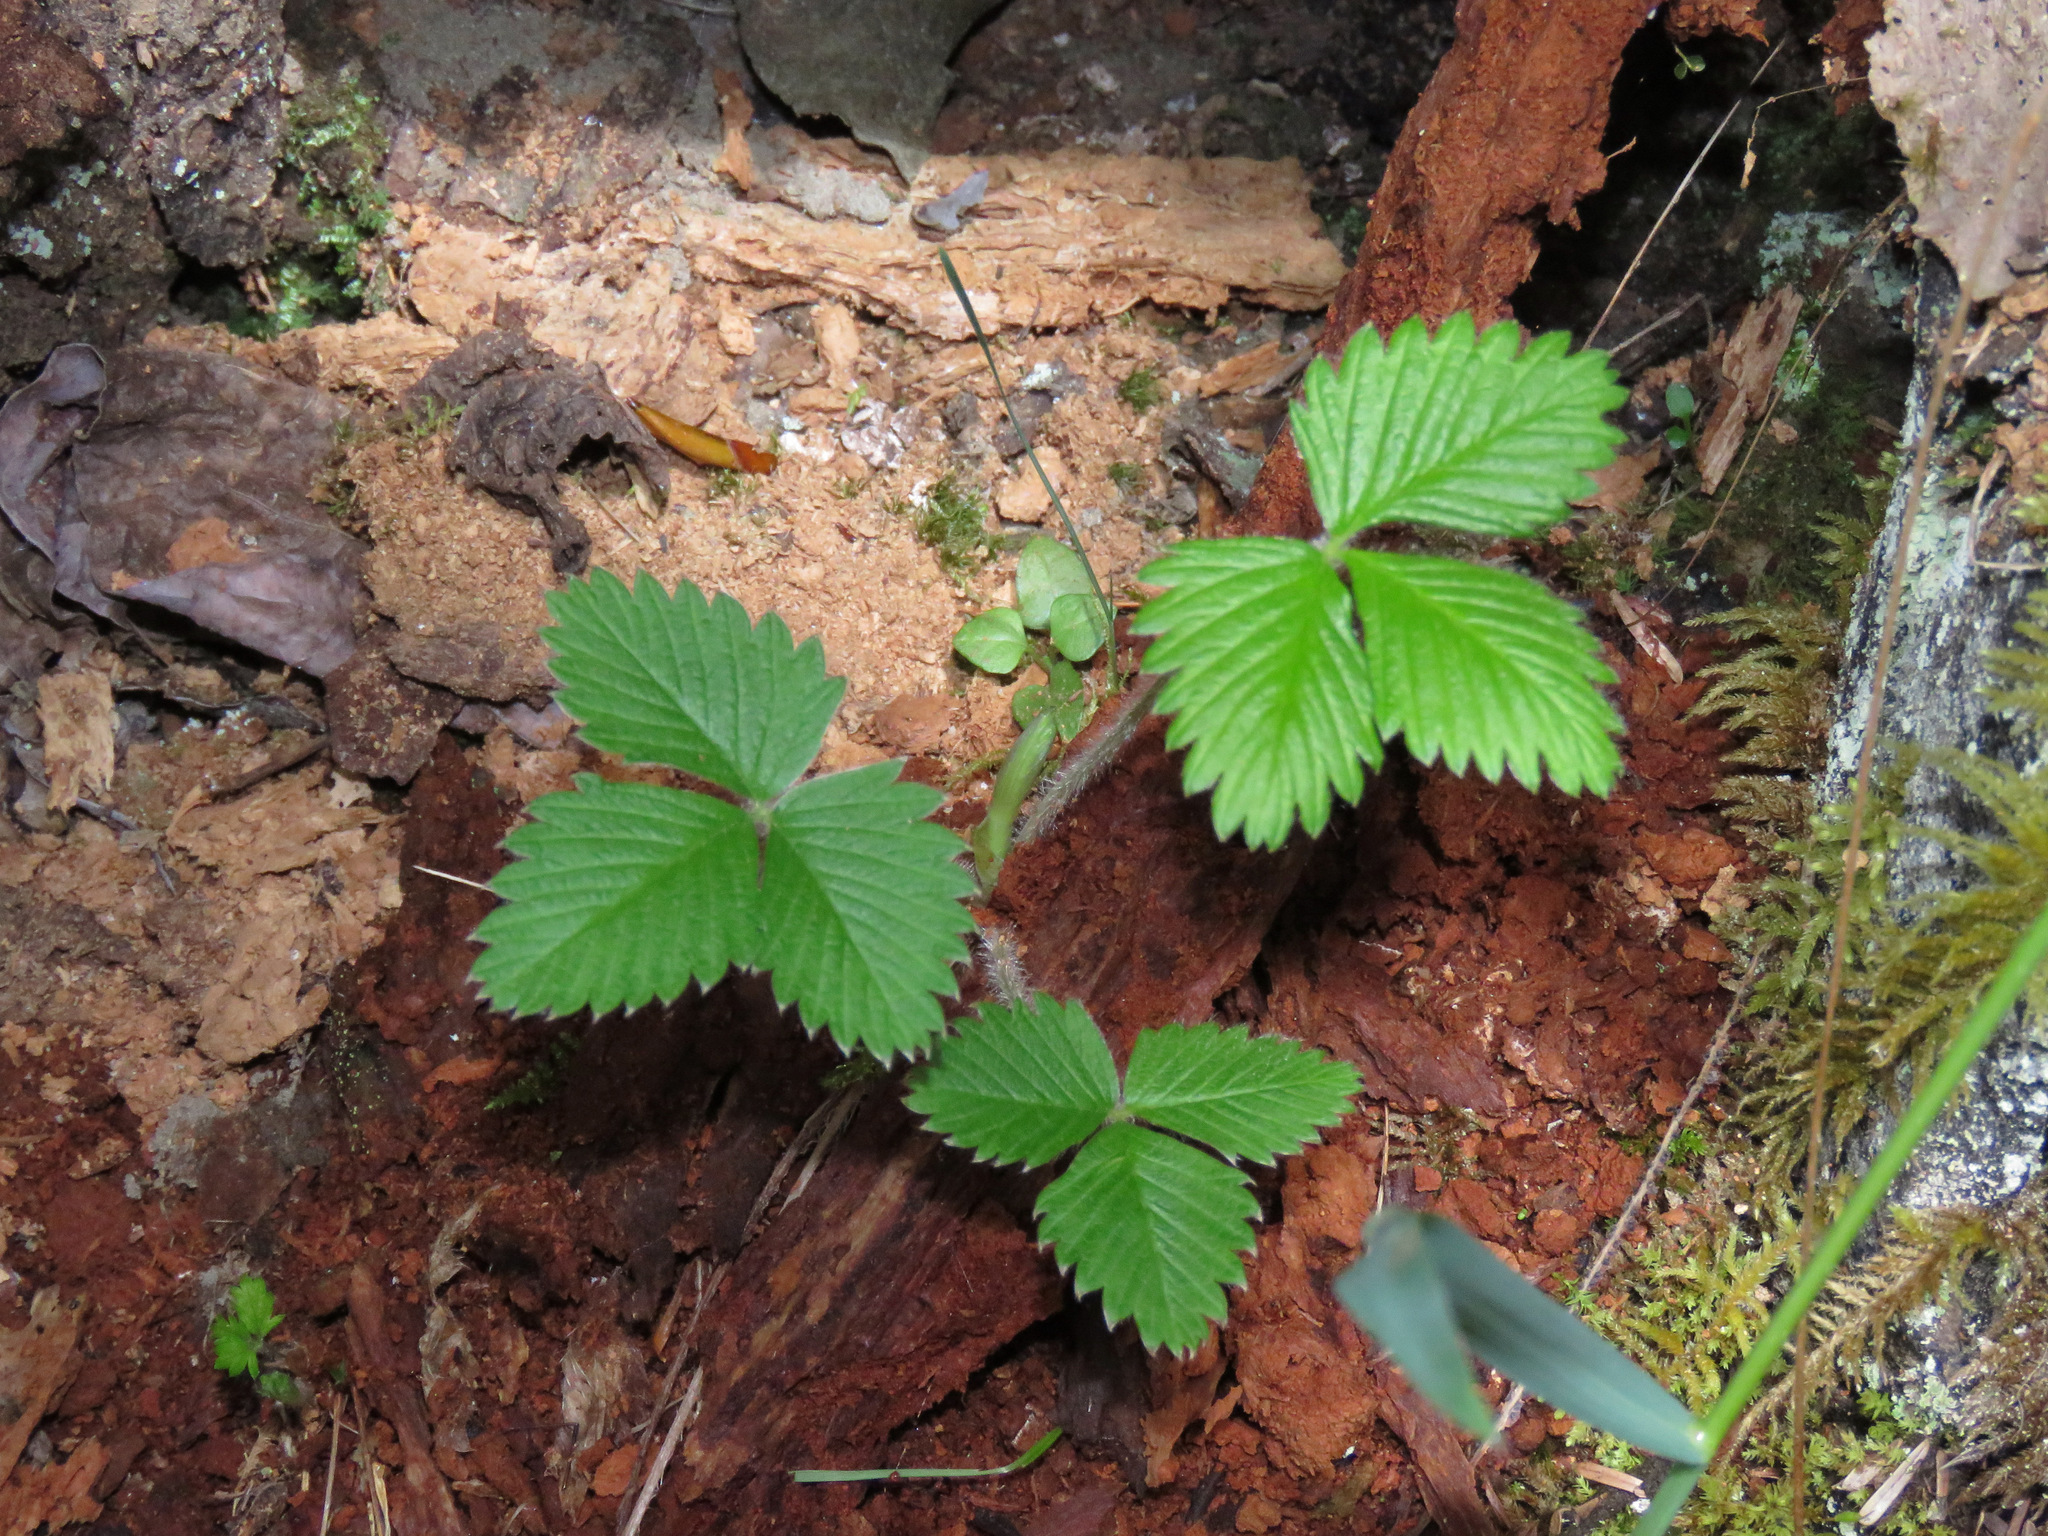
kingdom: Plantae
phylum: Tracheophyta
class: Magnoliopsida
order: Rosales
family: Rosaceae
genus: Fragaria
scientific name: Fragaria vesca
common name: Wild strawberry
